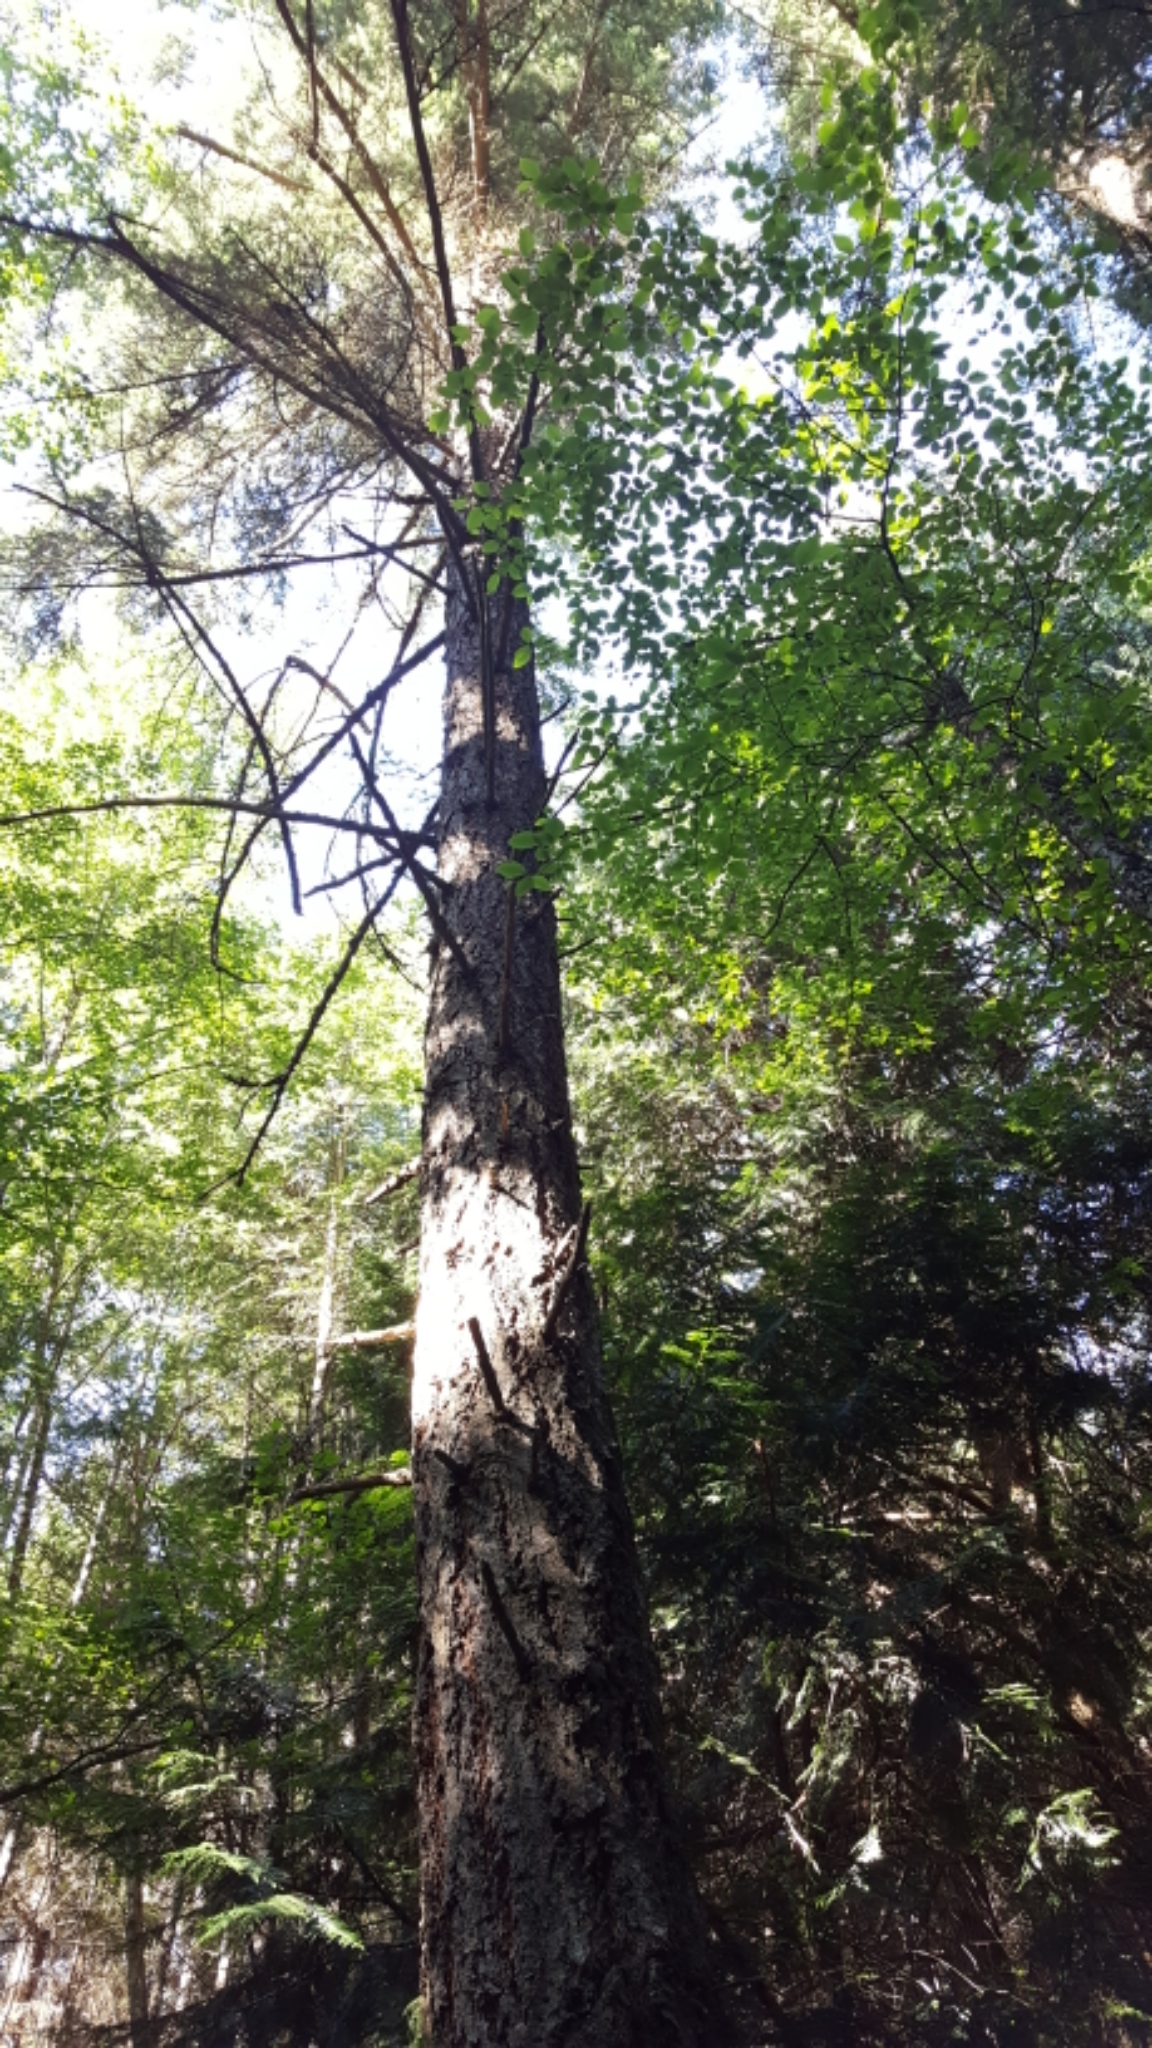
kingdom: Plantae
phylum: Tracheophyta
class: Pinopsida
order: Pinales
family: Pinaceae
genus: Pseudotsuga
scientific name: Pseudotsuga menziesii
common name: Douglas fir
